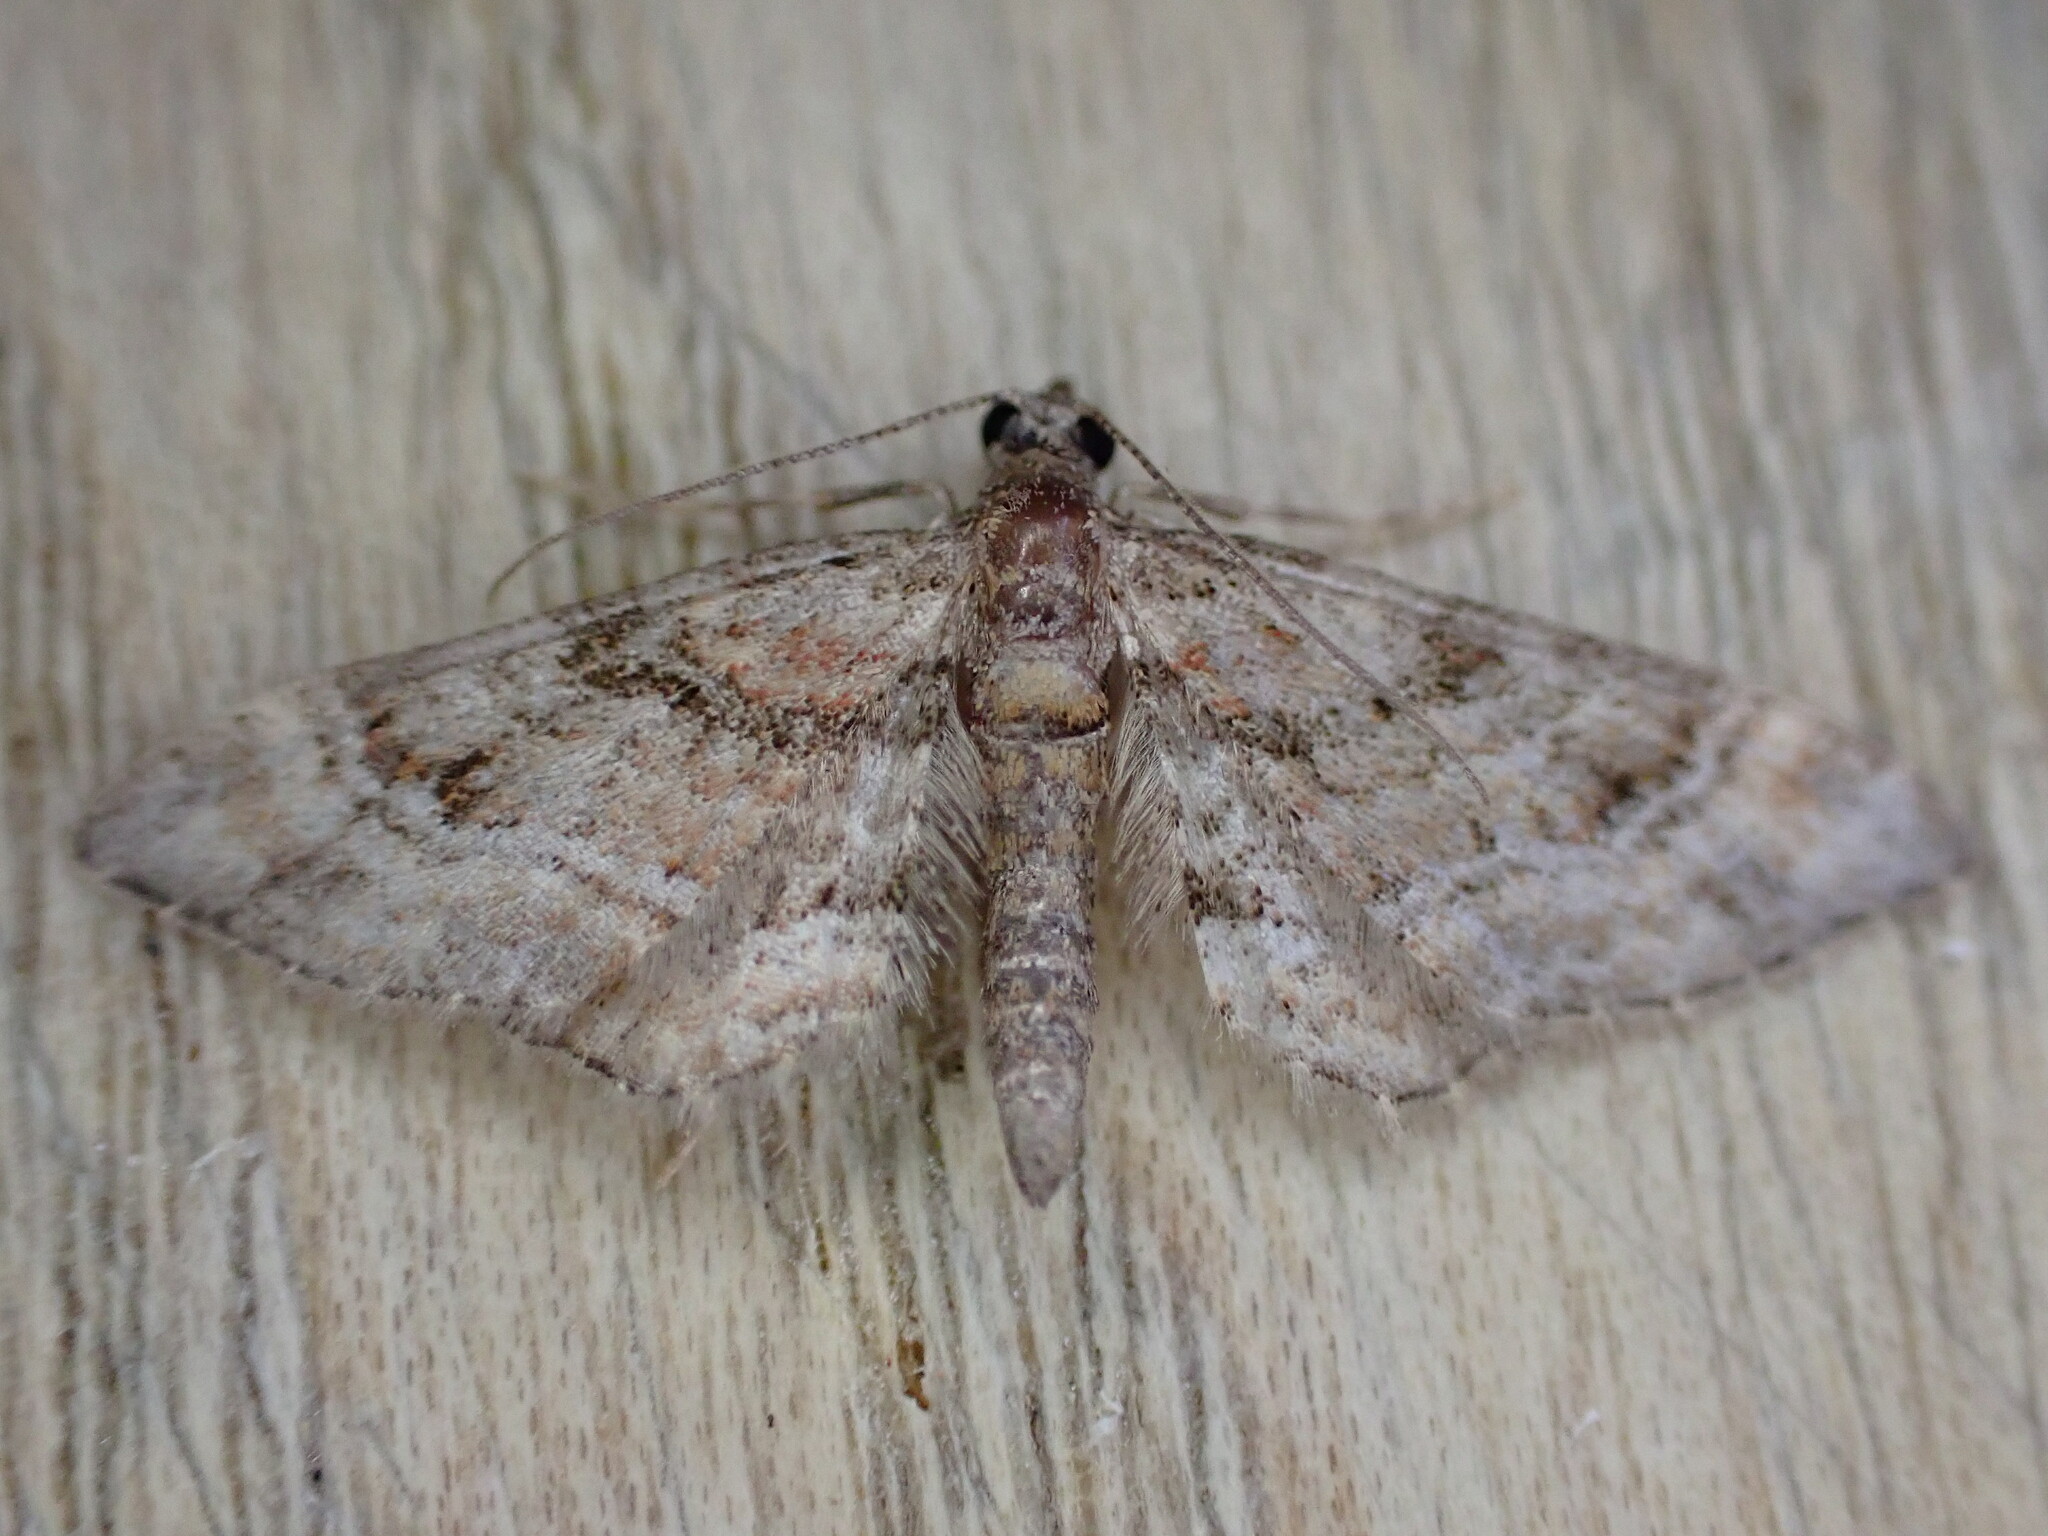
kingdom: Animalia
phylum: Arthropoda
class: Insecta
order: Lepidoptera
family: Geometridae
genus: Gymnoscelis
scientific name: Gymnoscelis rufifasciata
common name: Double-striped pug
